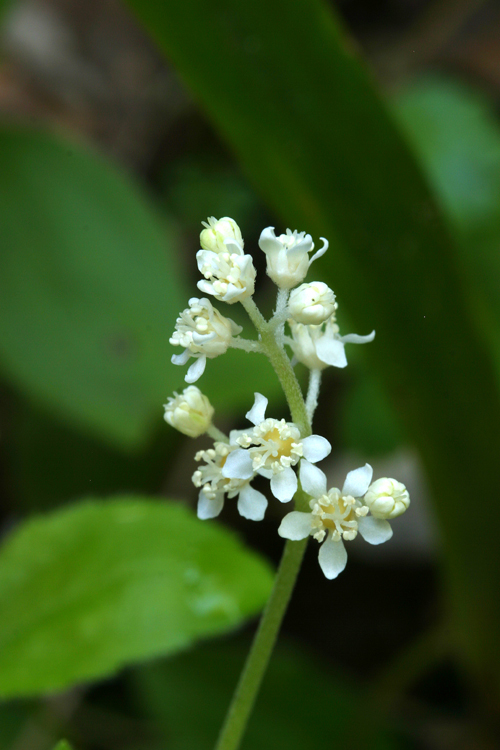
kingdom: Plantae
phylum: Tracheophyta
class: Magnoliopsida
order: Cornales
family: Hydrangeaceae
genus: Whipplea
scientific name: Whipplea modesta
